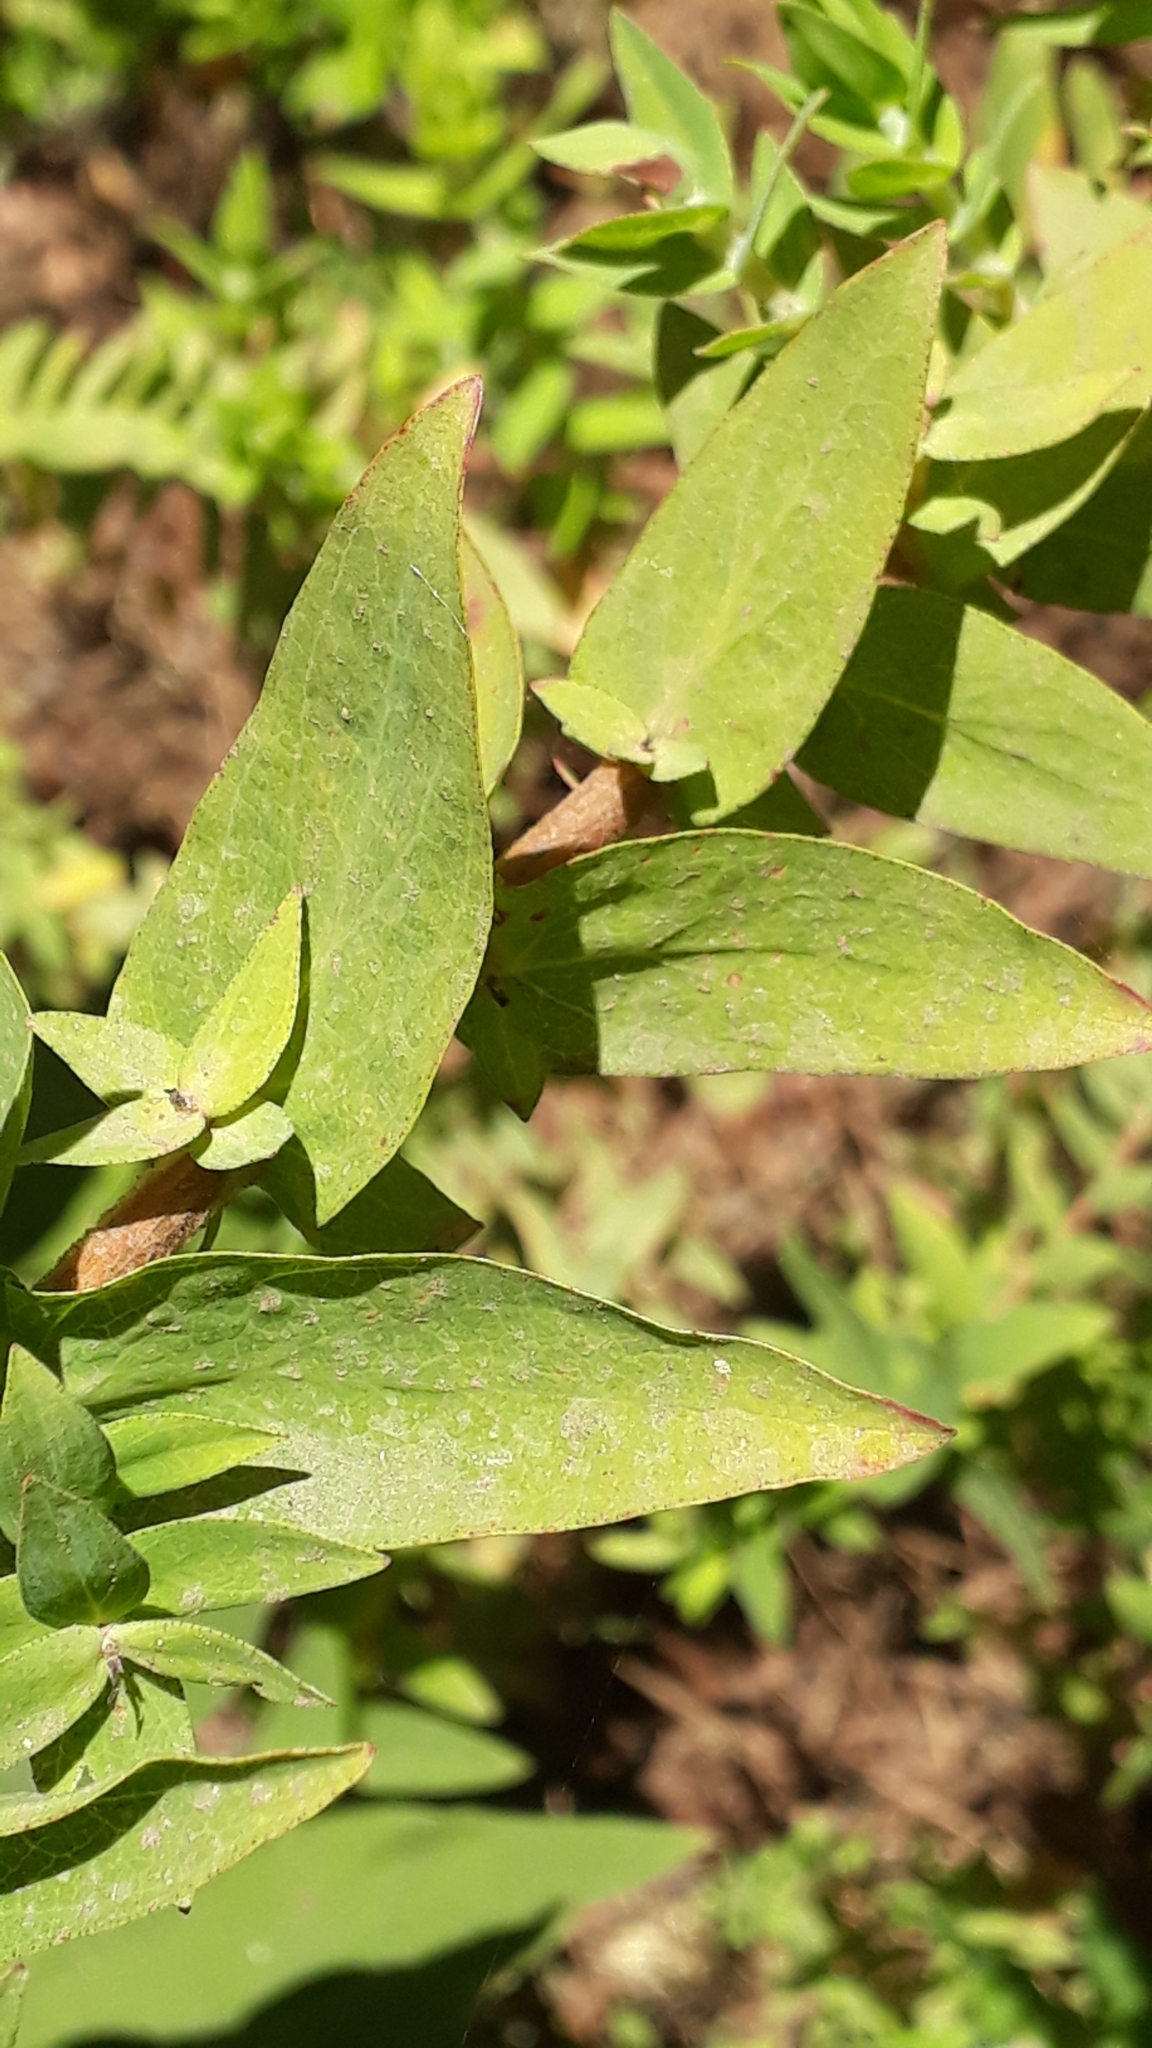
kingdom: Plantae
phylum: Tracheophyta
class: Magnoliopsida
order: Malpighiales
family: Hypericaceae
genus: Hypericum
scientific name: Hypericum reflexum
